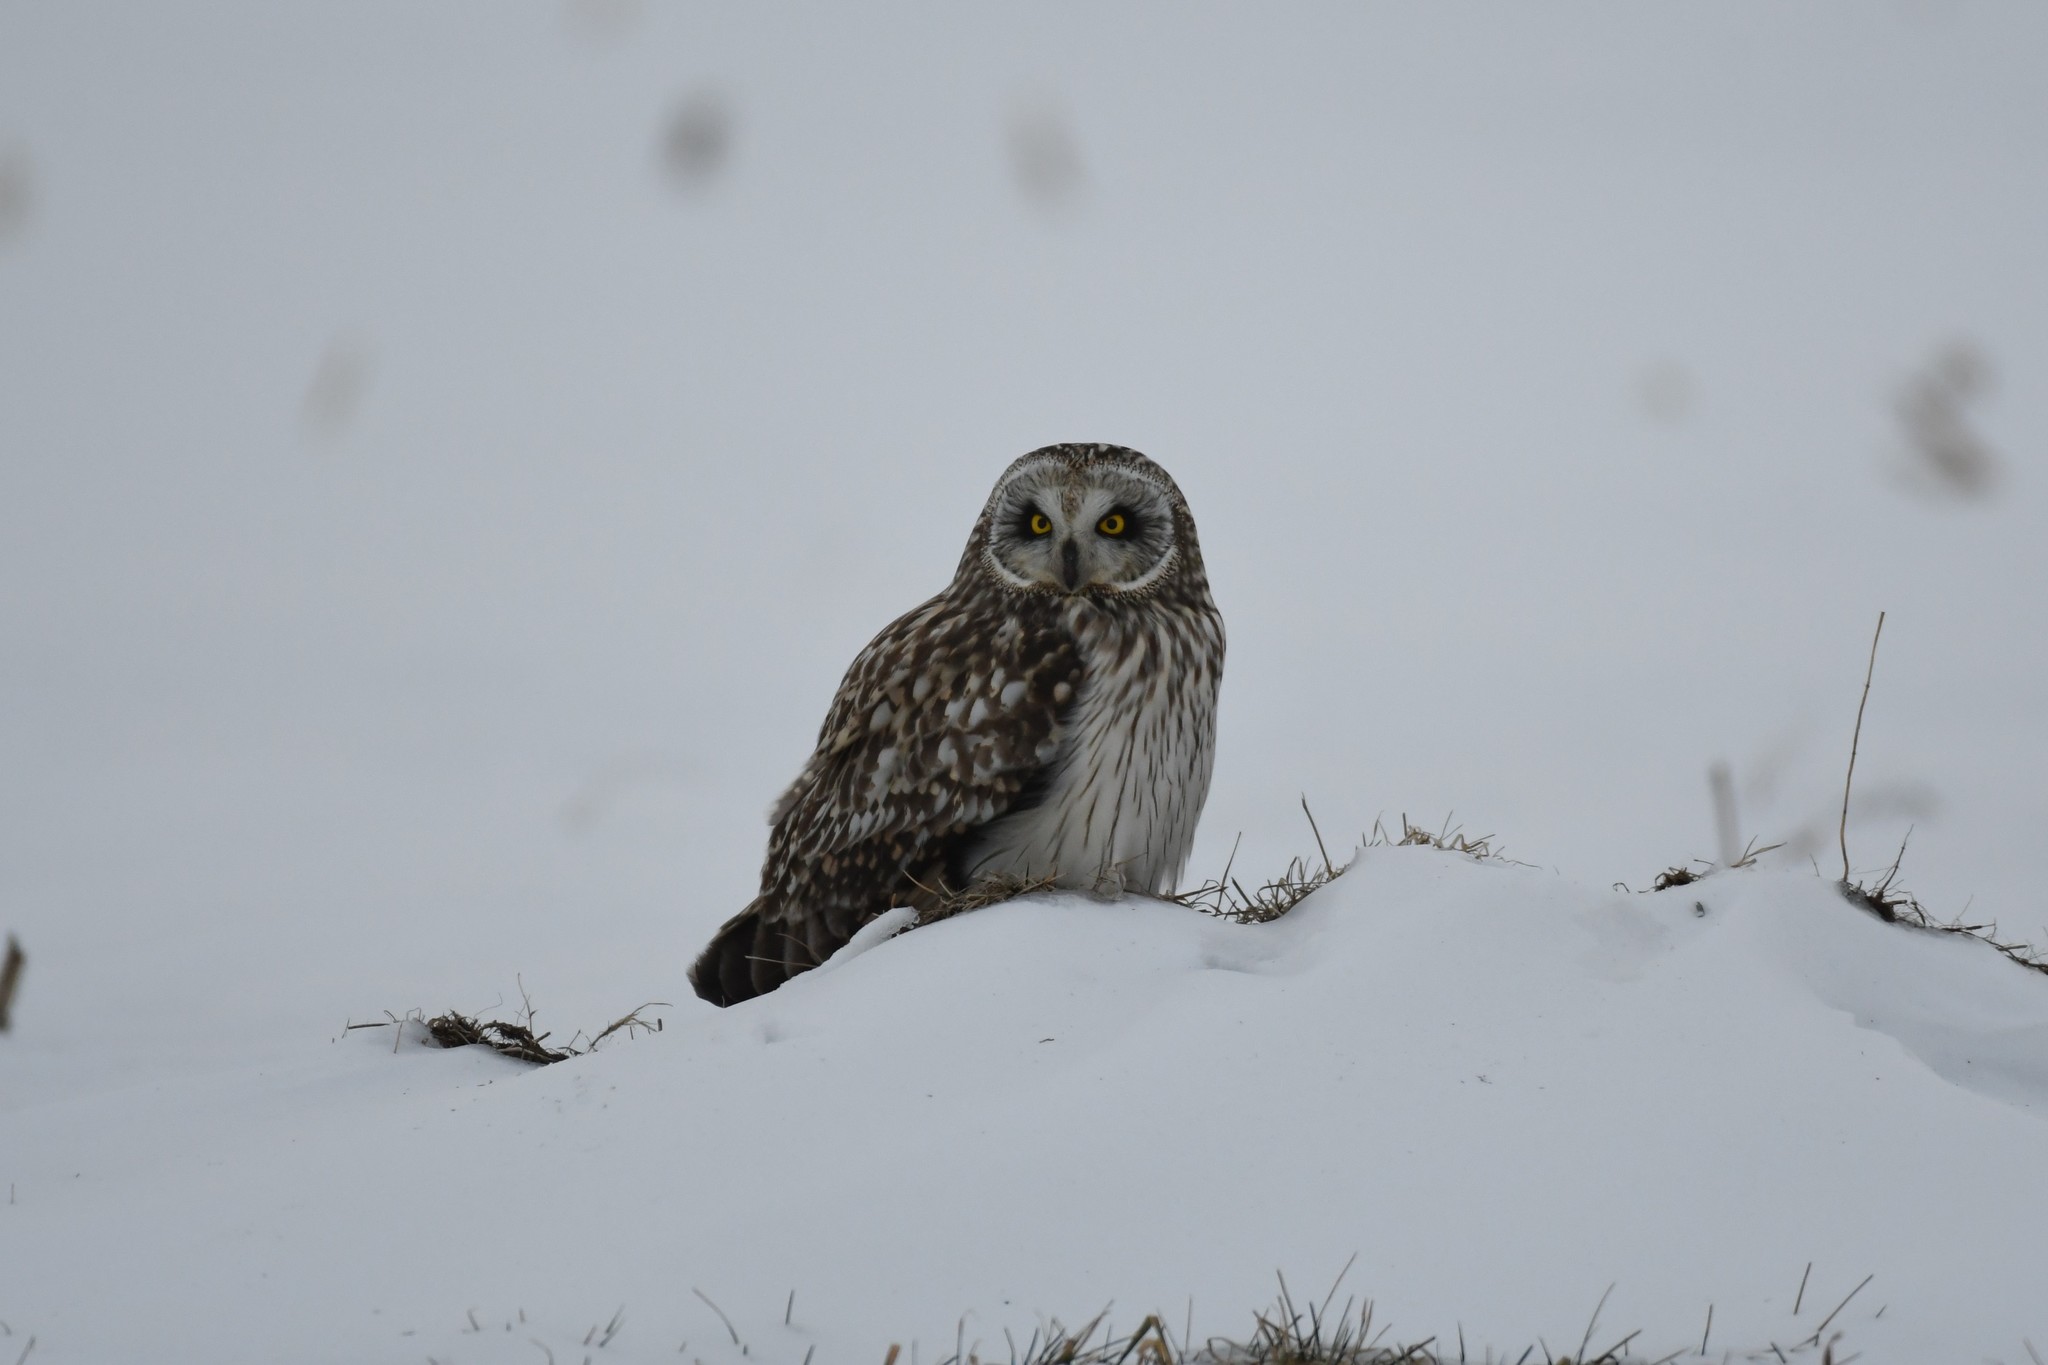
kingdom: Animalia
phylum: Chordata
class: Aves
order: Strigiformes
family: Strigidae
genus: Asio
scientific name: Asio flammeus
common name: Short-eared owl
